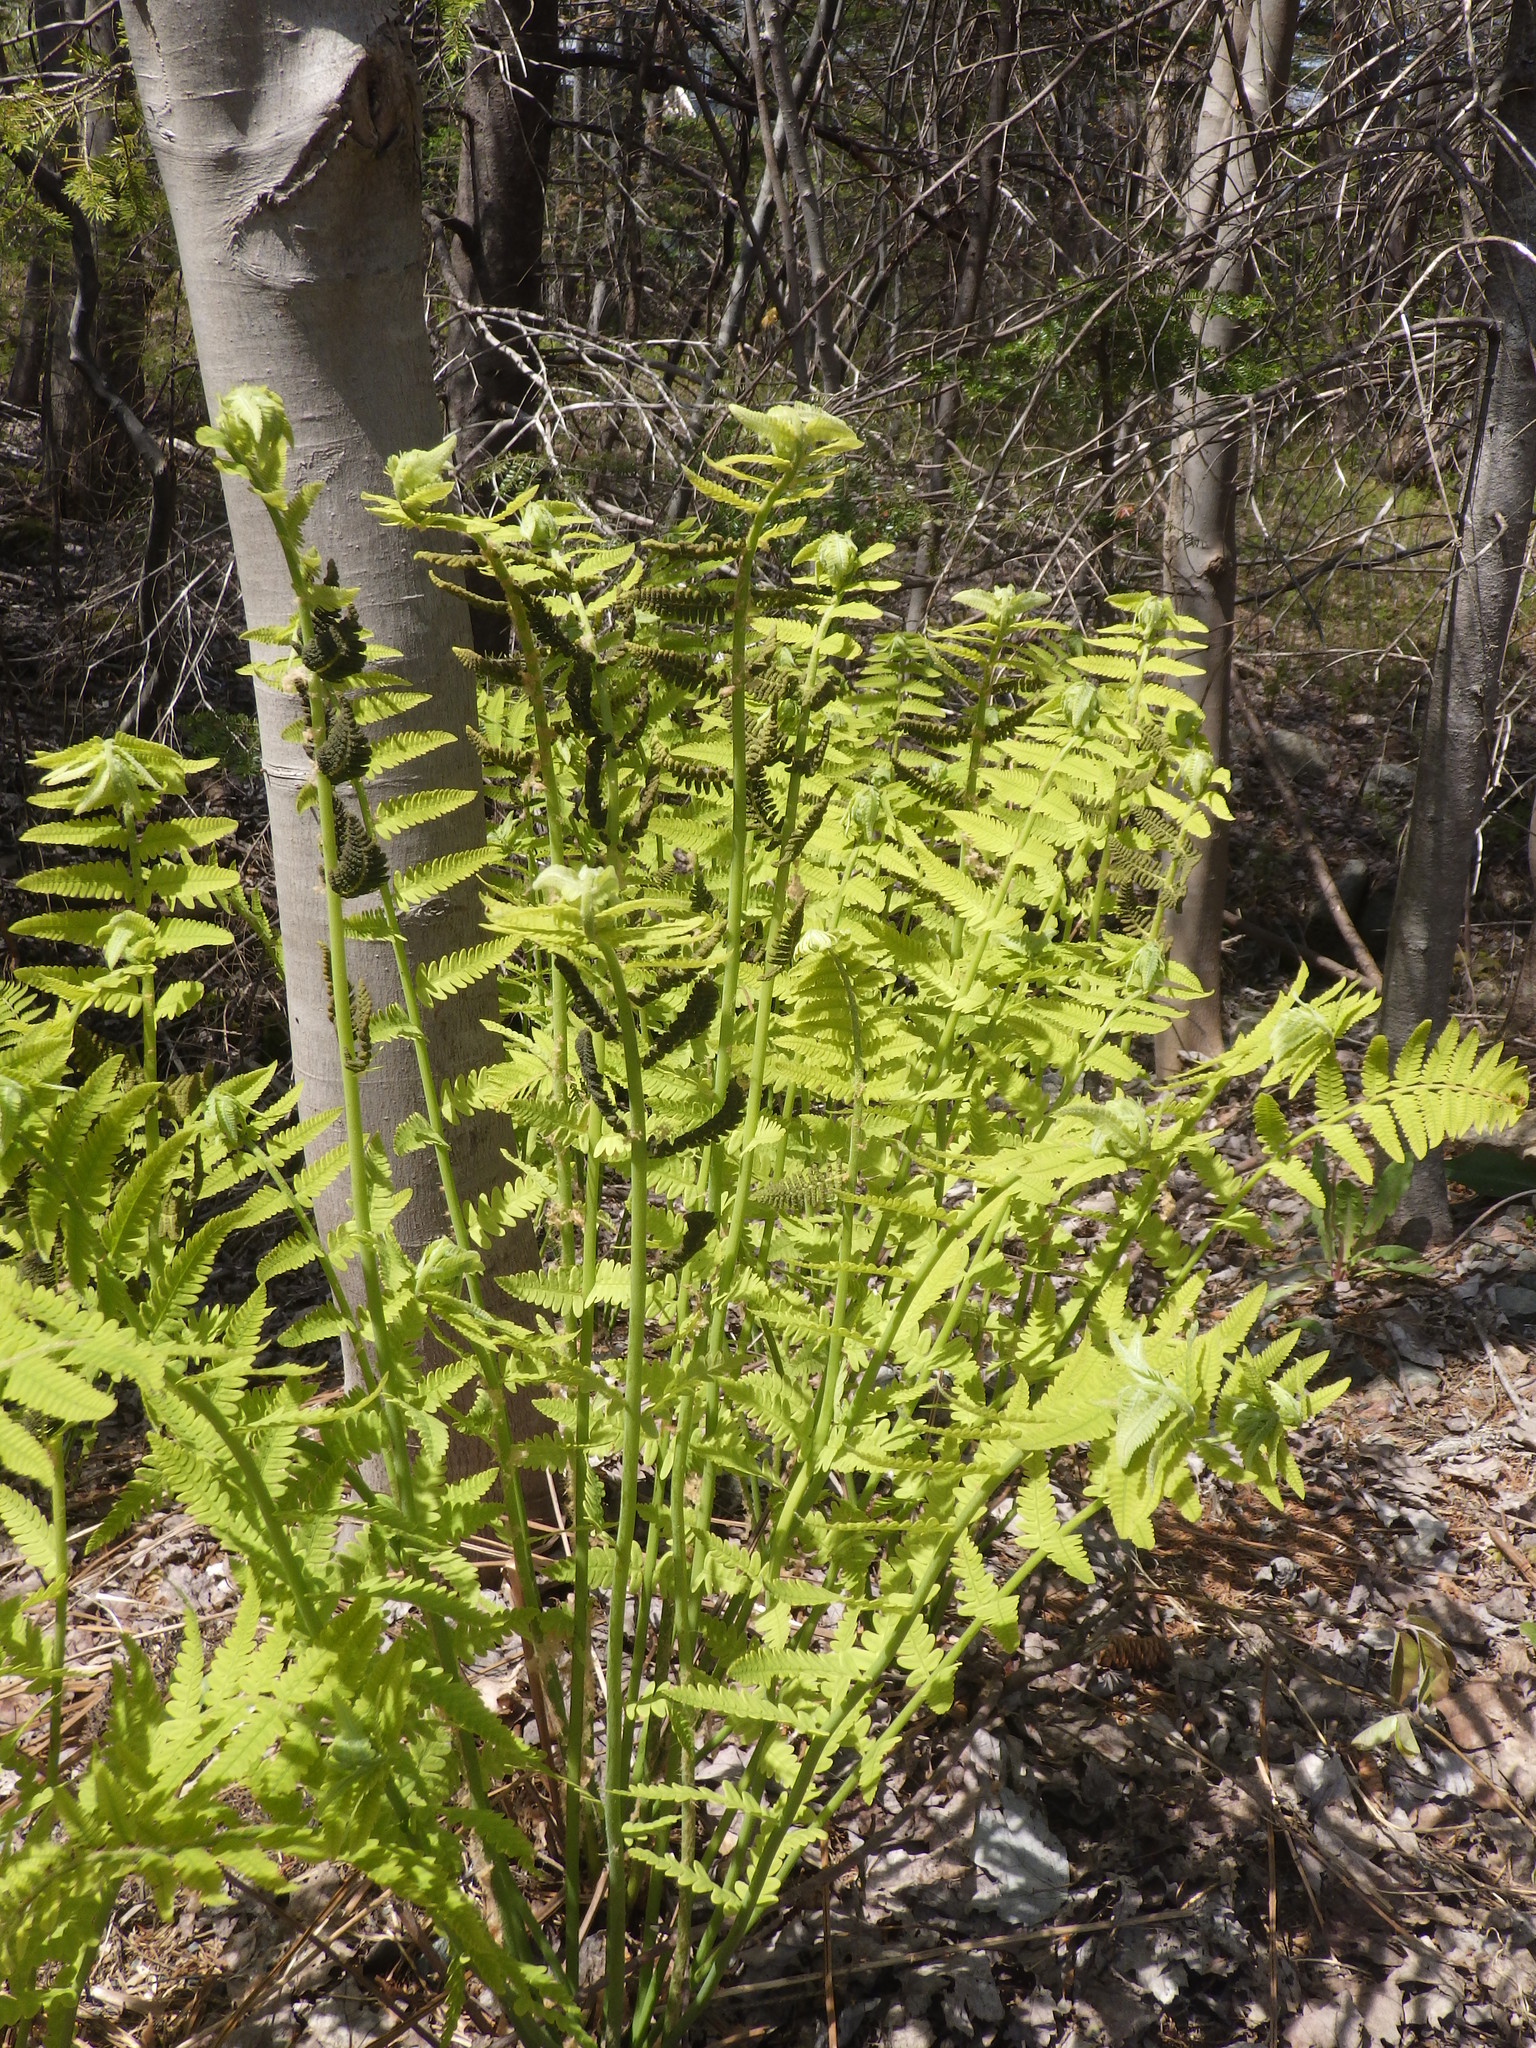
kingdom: Plantae
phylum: Tracheophyta
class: Polypodiopsida
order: Osmundales
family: Osmundaceae
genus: Claytosmunda
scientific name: Claytosmunda claytoniana
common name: Clayton's fern
